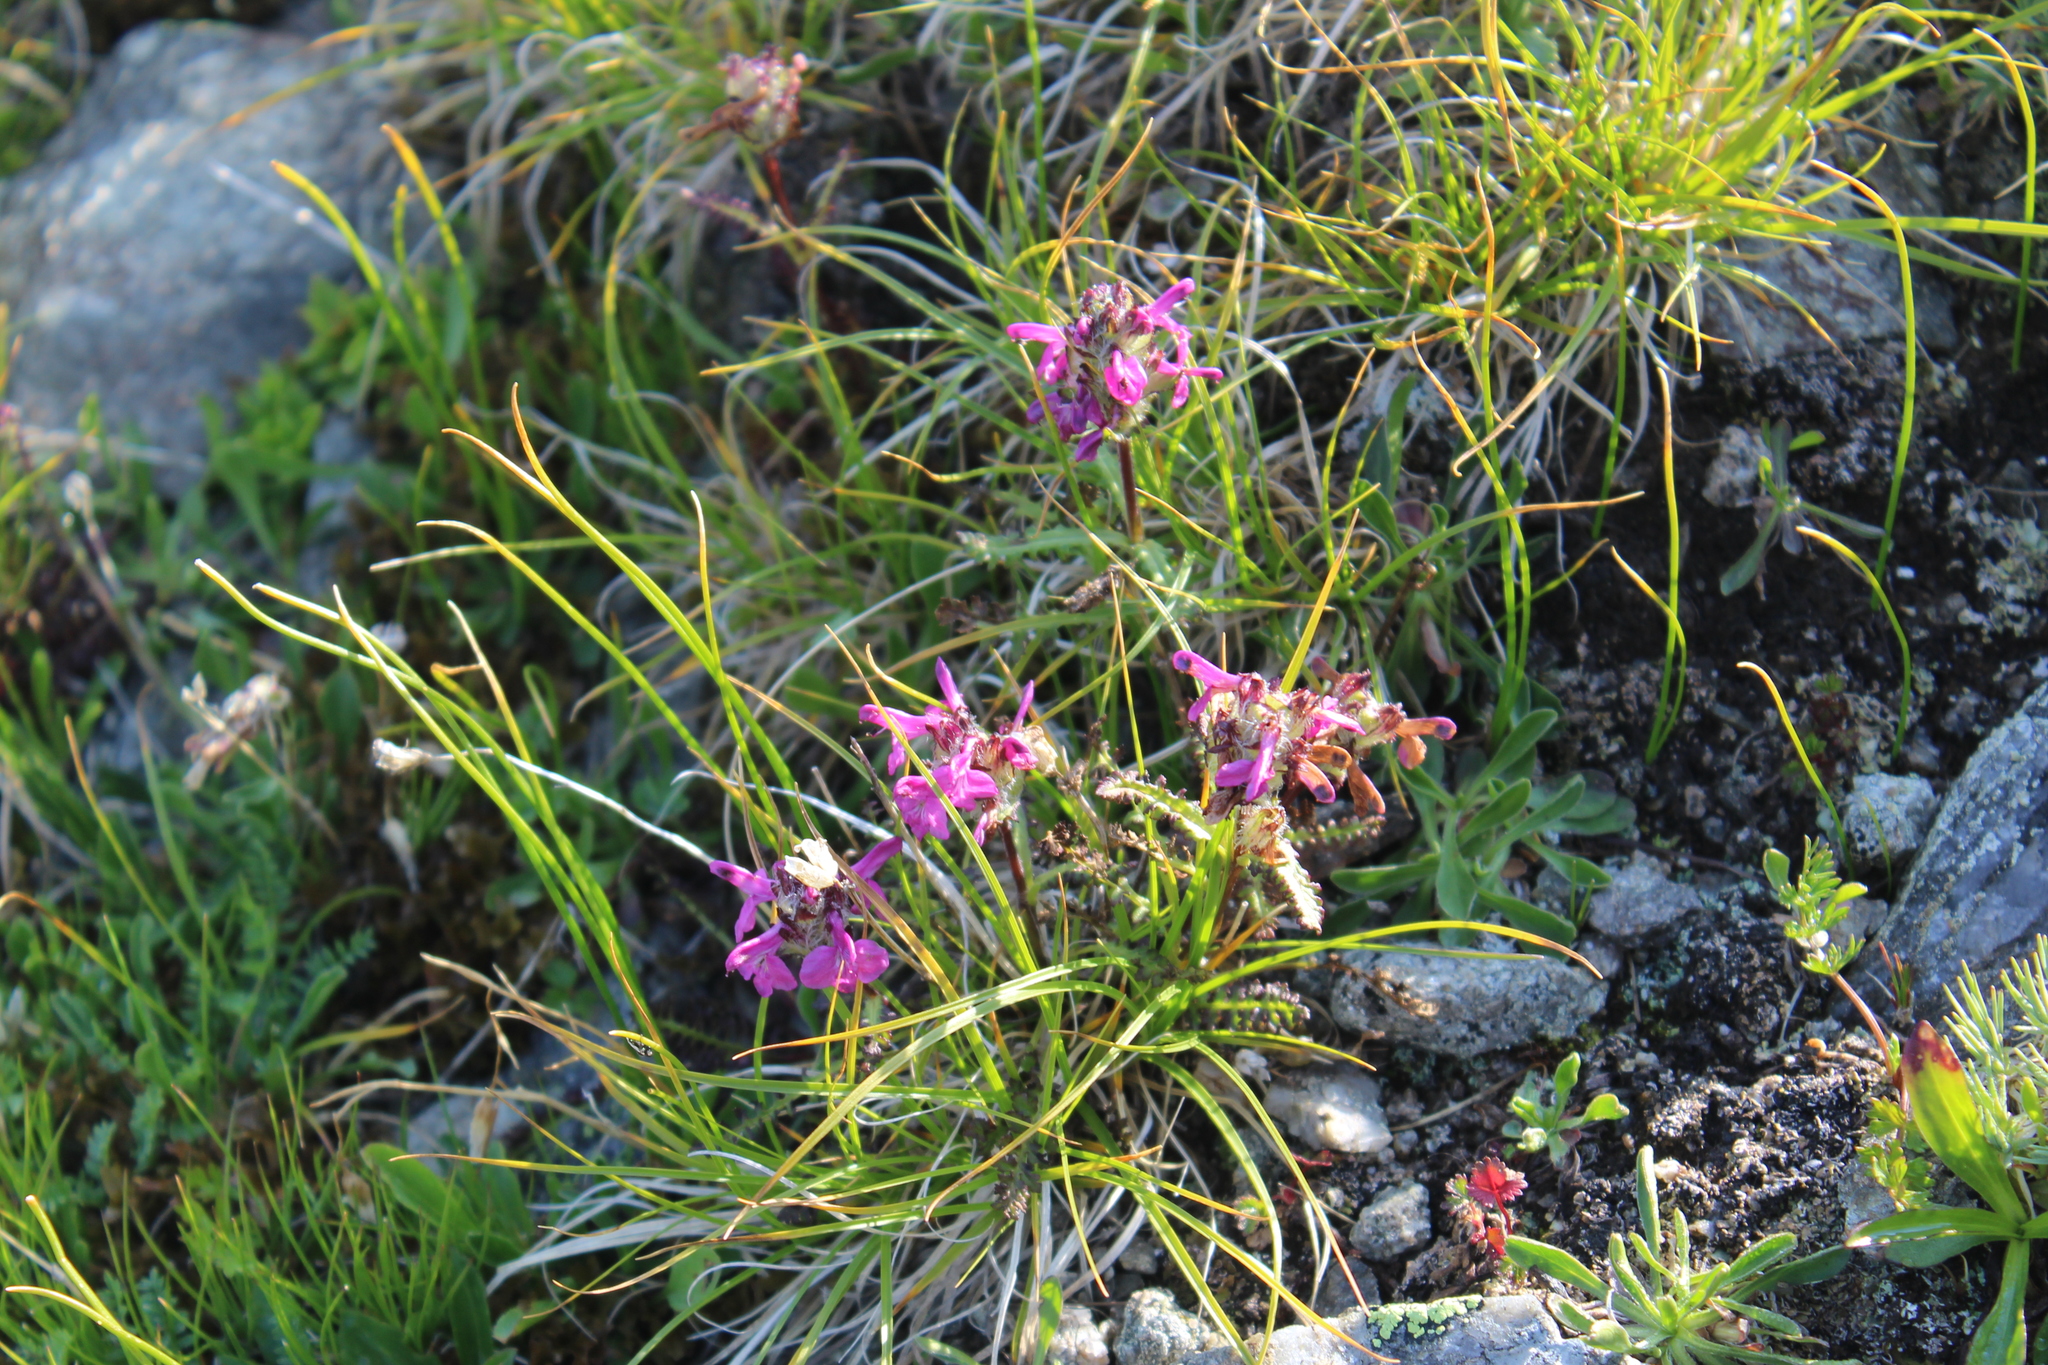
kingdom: Plantae
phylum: Tracheophyta
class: Magnoliopsida
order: Lamiales
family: Orobanchaceae
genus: Pedicularis
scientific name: Pedicularis caucasica
